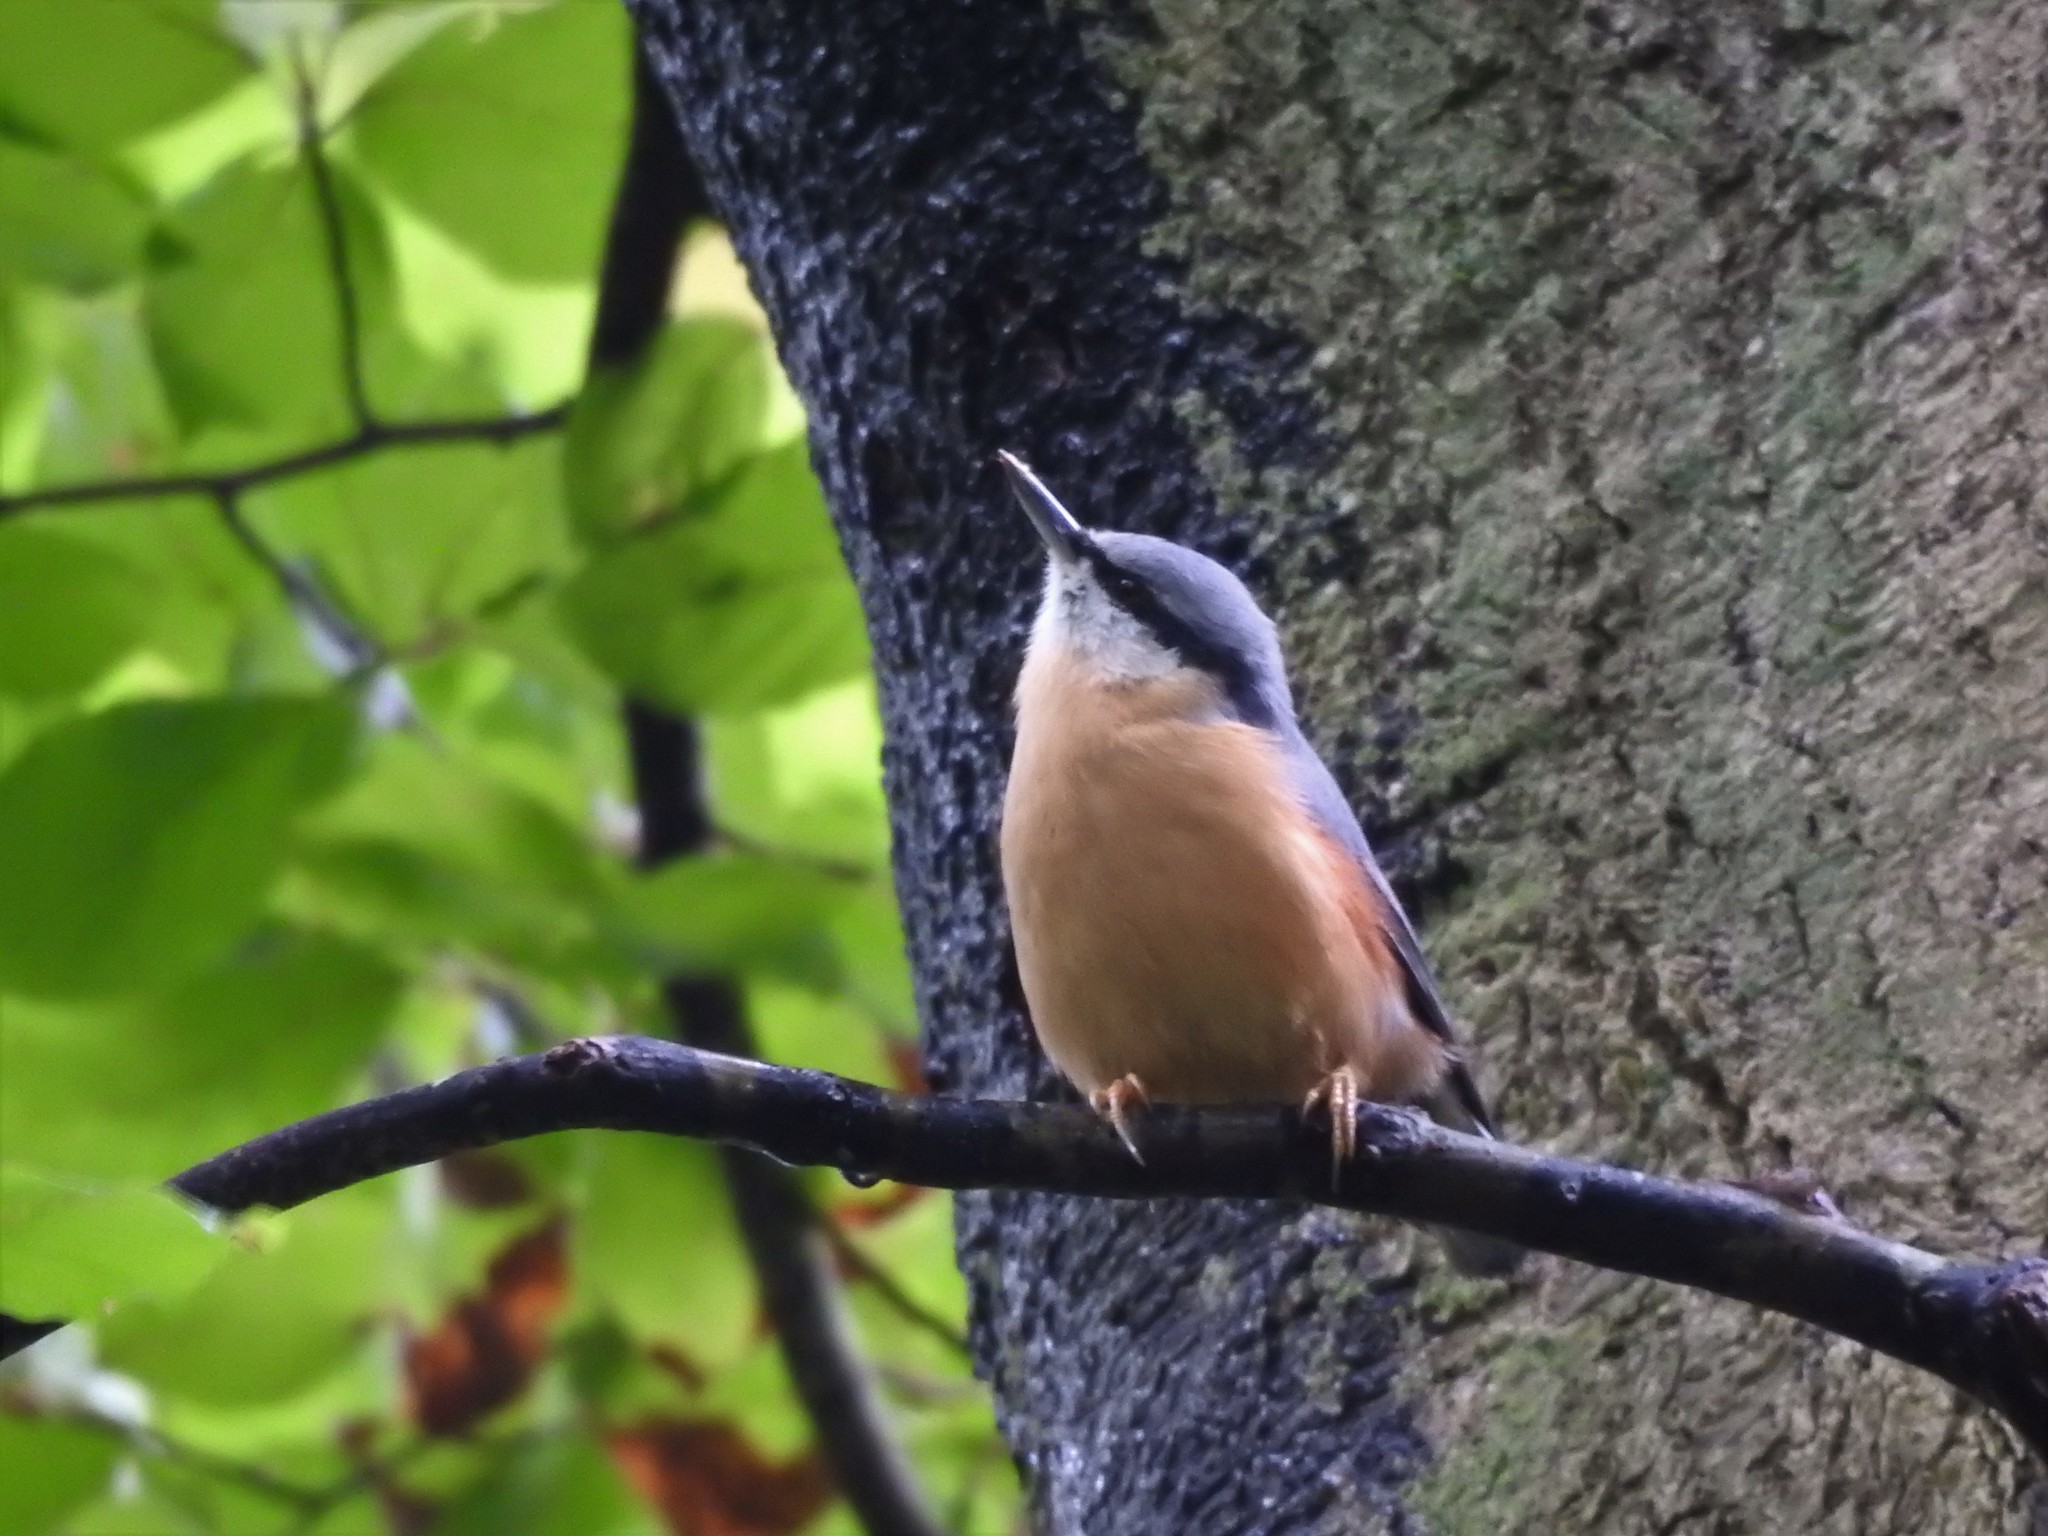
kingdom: Animalia
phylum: Chordata
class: Aves
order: Passeriformes
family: Sittidae
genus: Sitta
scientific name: Sitta europaea
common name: Eurasian nuthatch
